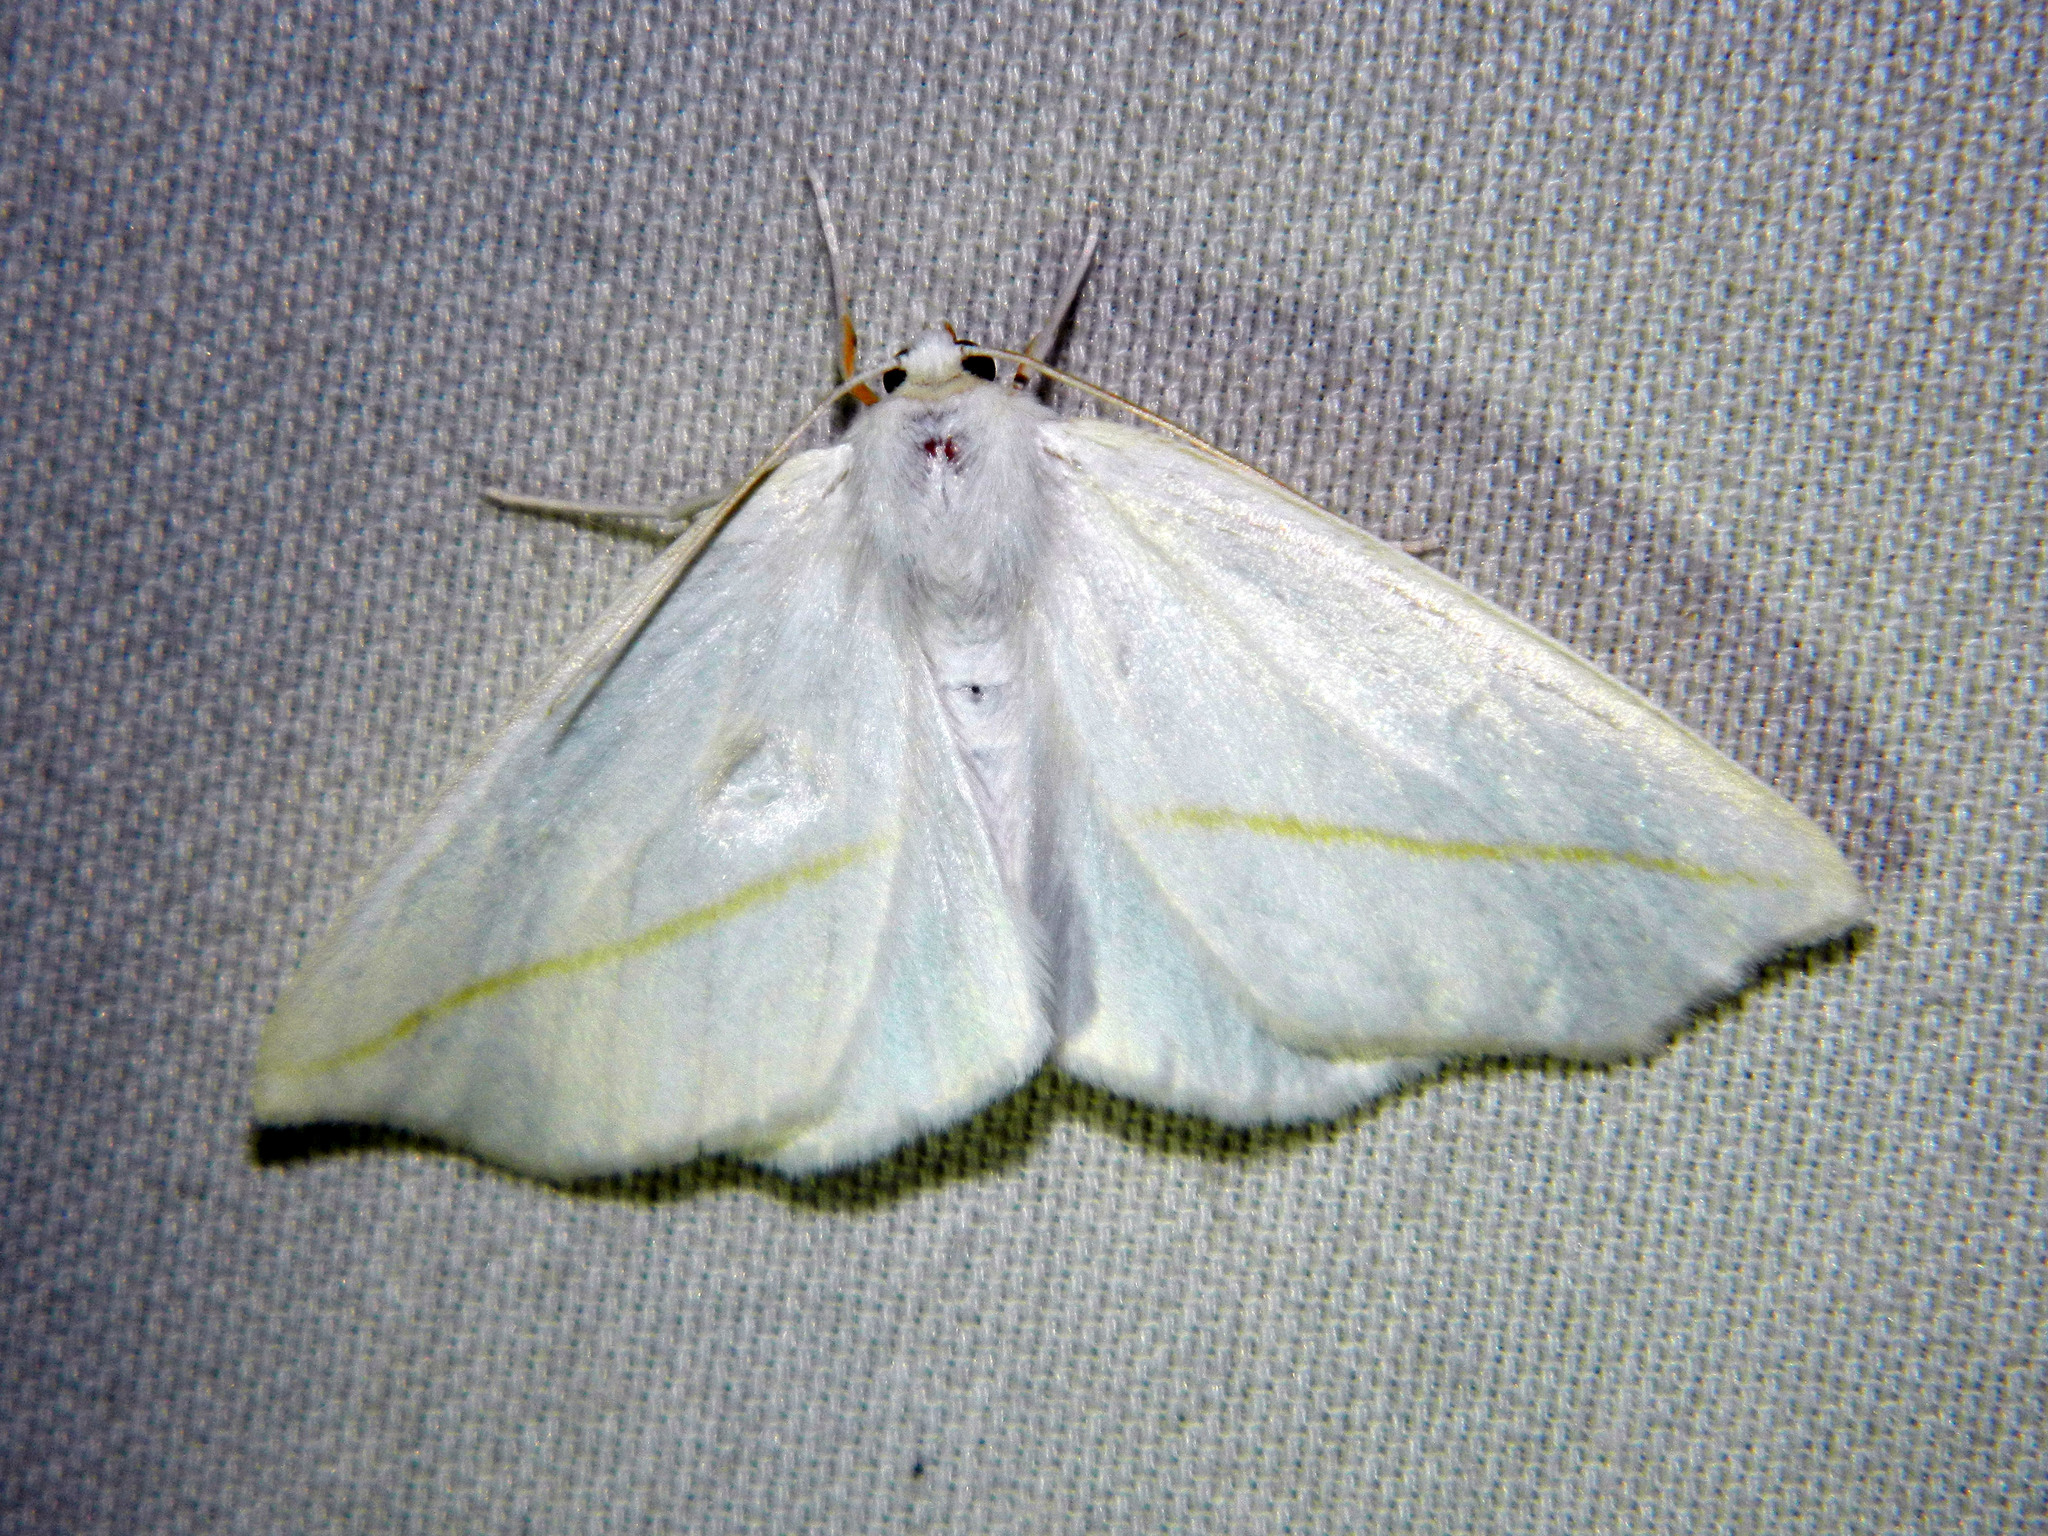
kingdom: Animalia
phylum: Arthropoda
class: Insecta
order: Lepidoptera
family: Geometridae
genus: Tetracis
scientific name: Tetracis cachexiata
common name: White slant-line
